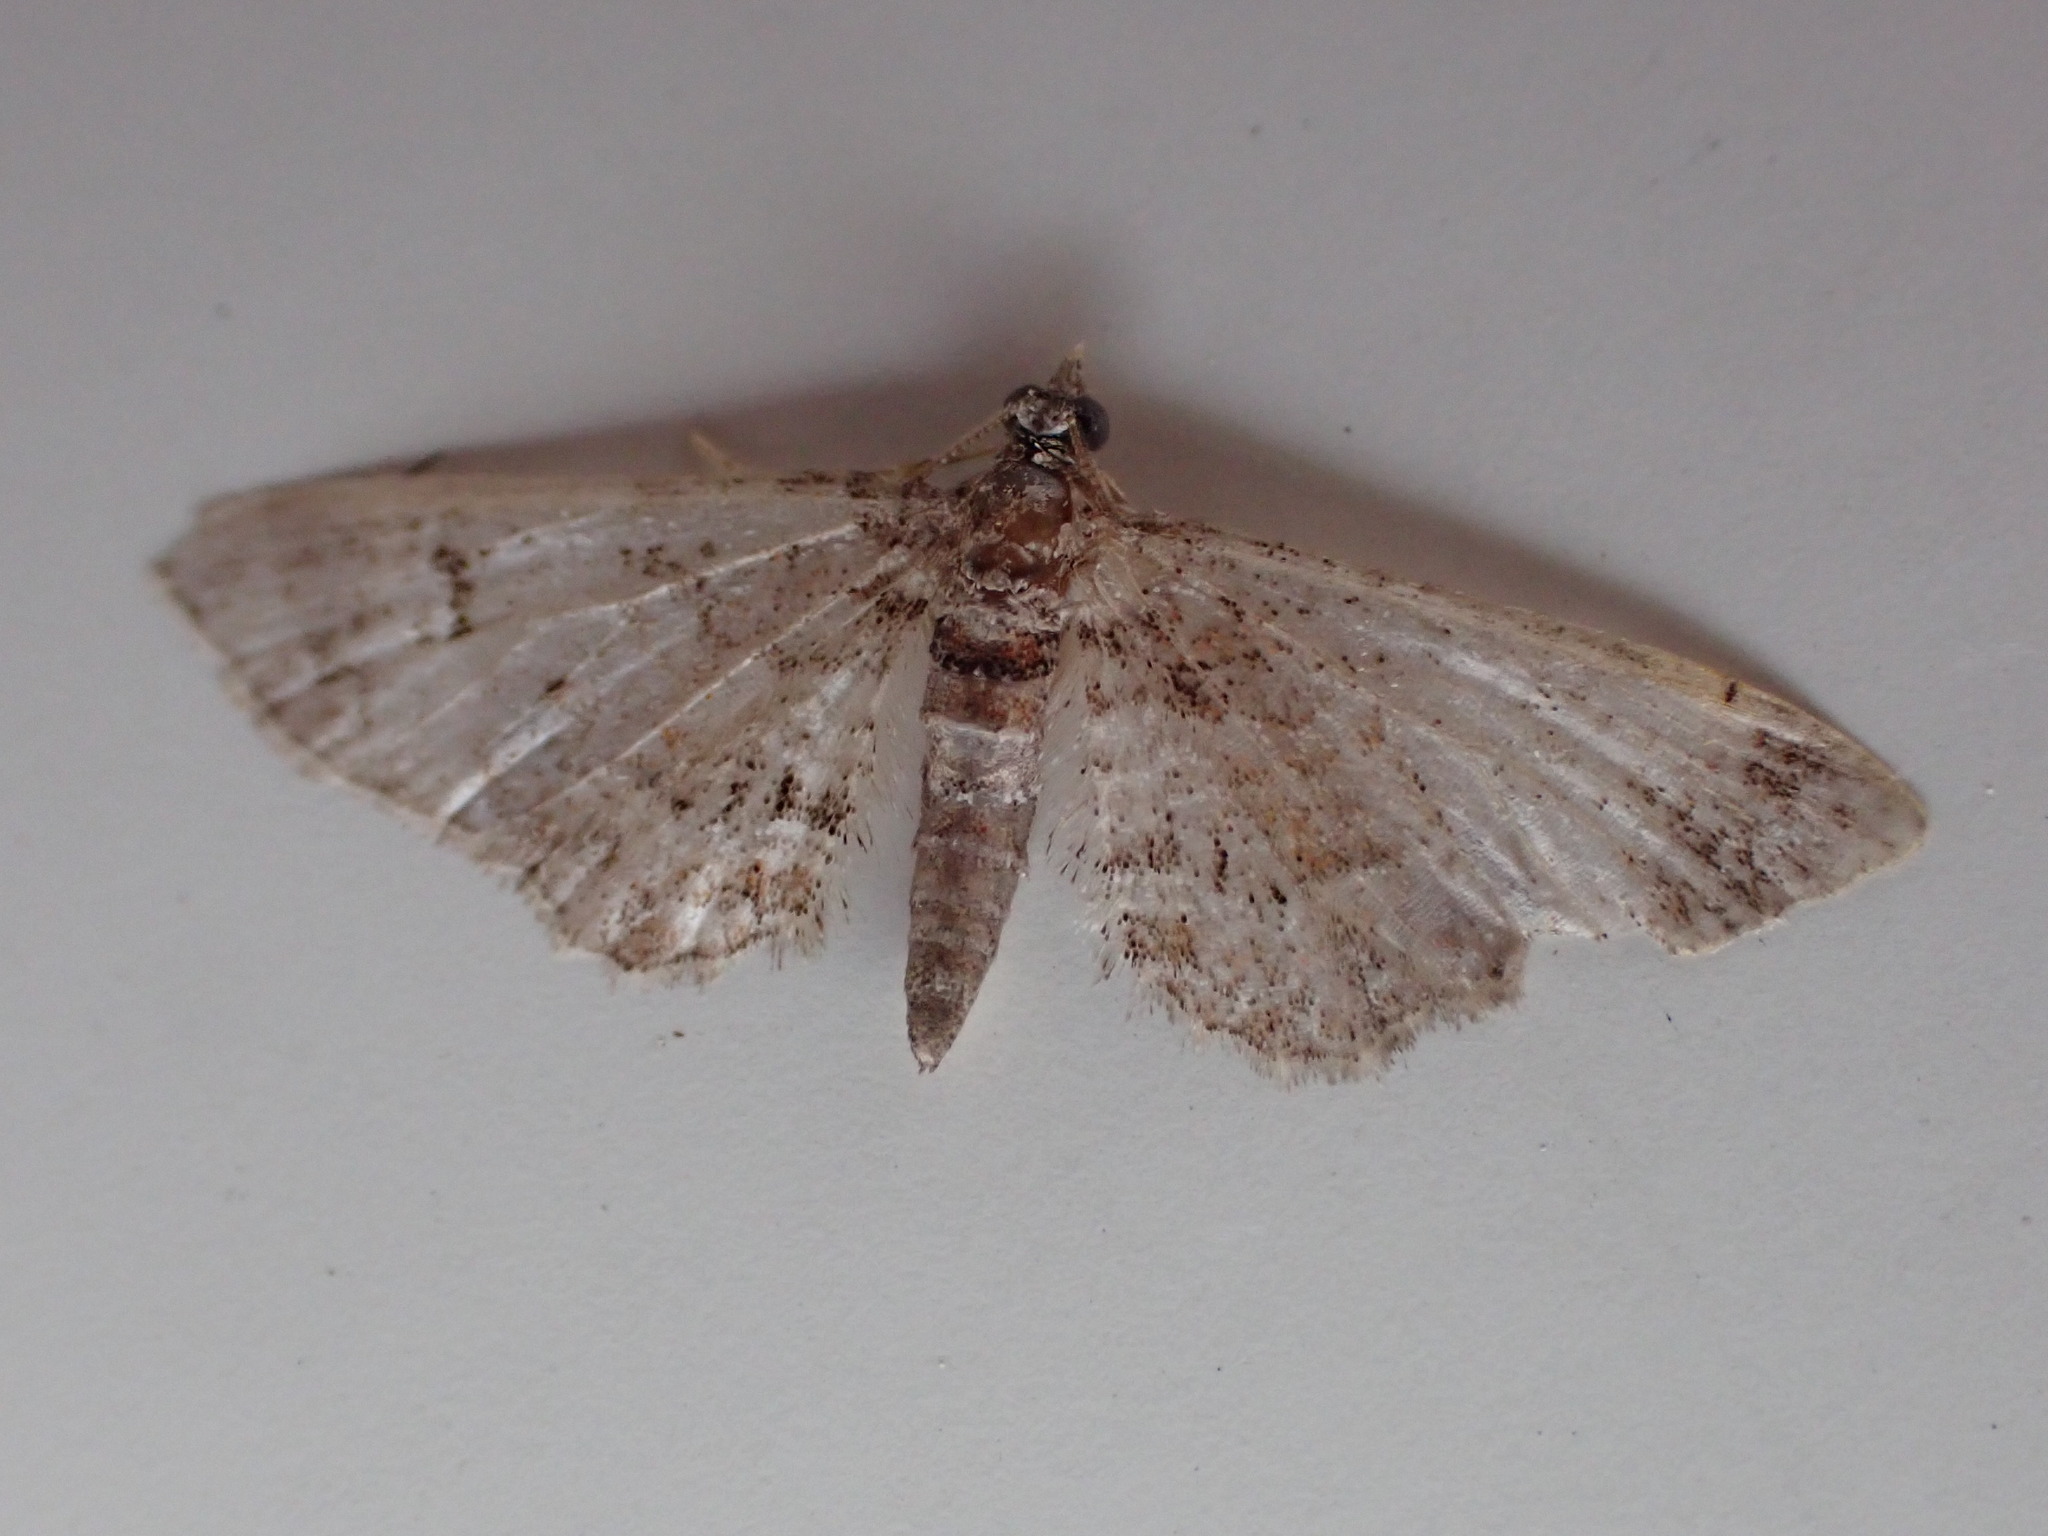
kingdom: Animalia
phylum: Arthropoda
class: Insecta
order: Lepidoptera
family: Geometridae
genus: Gymnoscelis
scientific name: Gymnoscelis rufifasciata
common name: Double-striped pug
